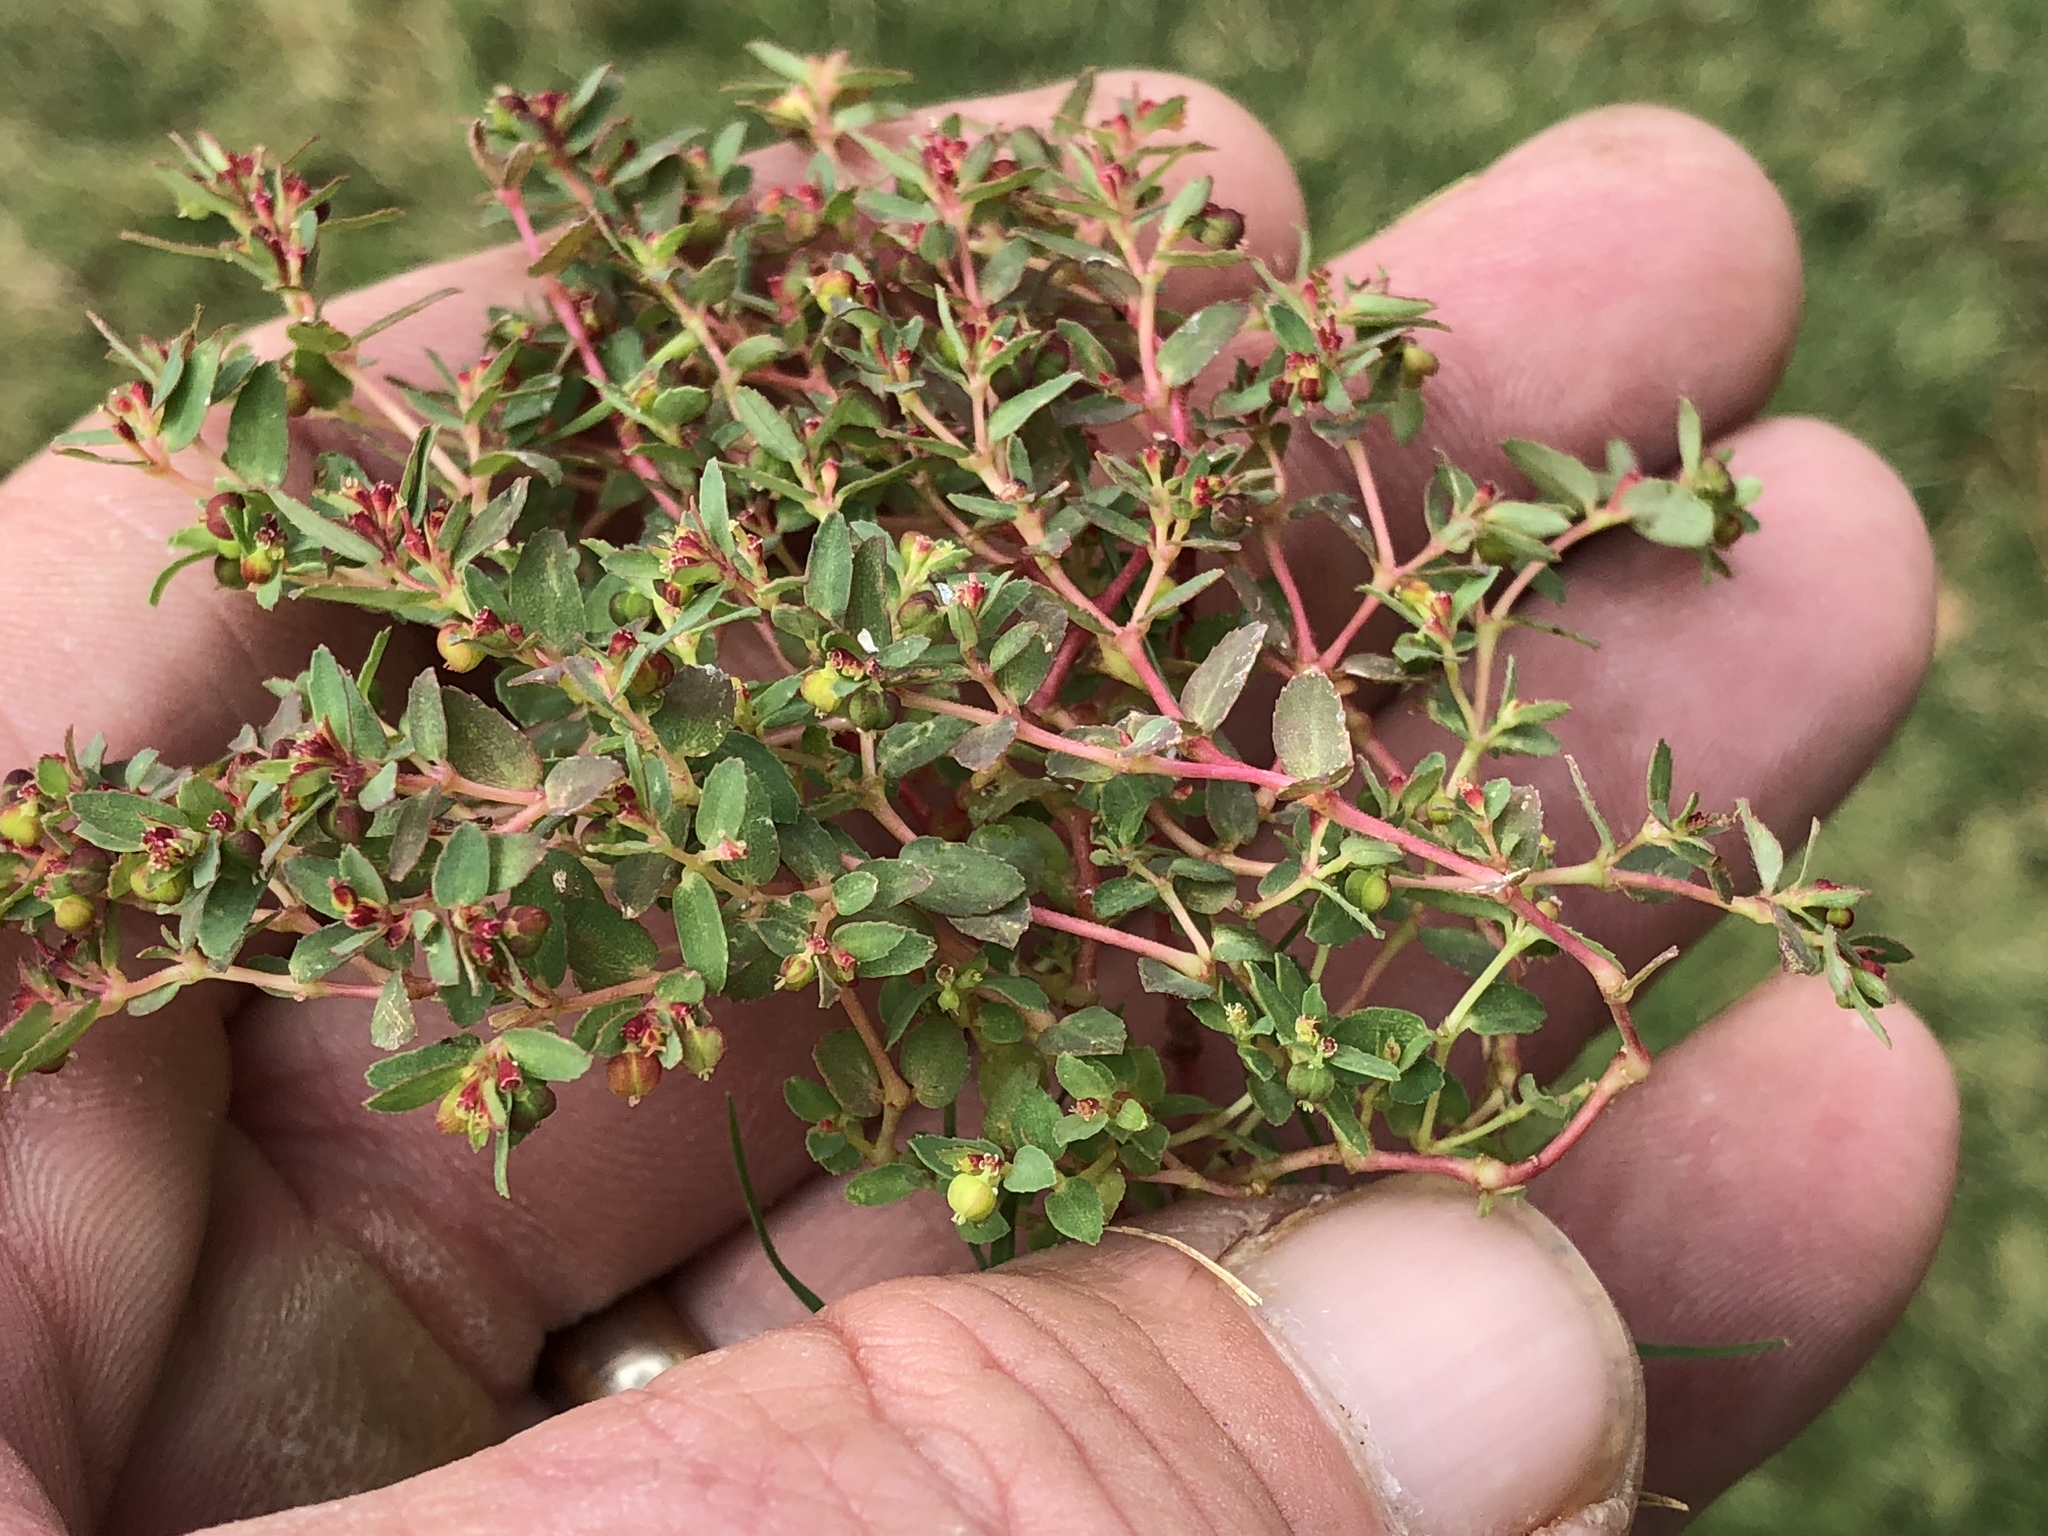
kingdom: Plantae
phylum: Tracheophyta
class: Magnoliopsida
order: Malpighiales
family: Euphorbiaceae
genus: Euphorbia
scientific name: Euphorbia vermiculata
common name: Hairy spurge
